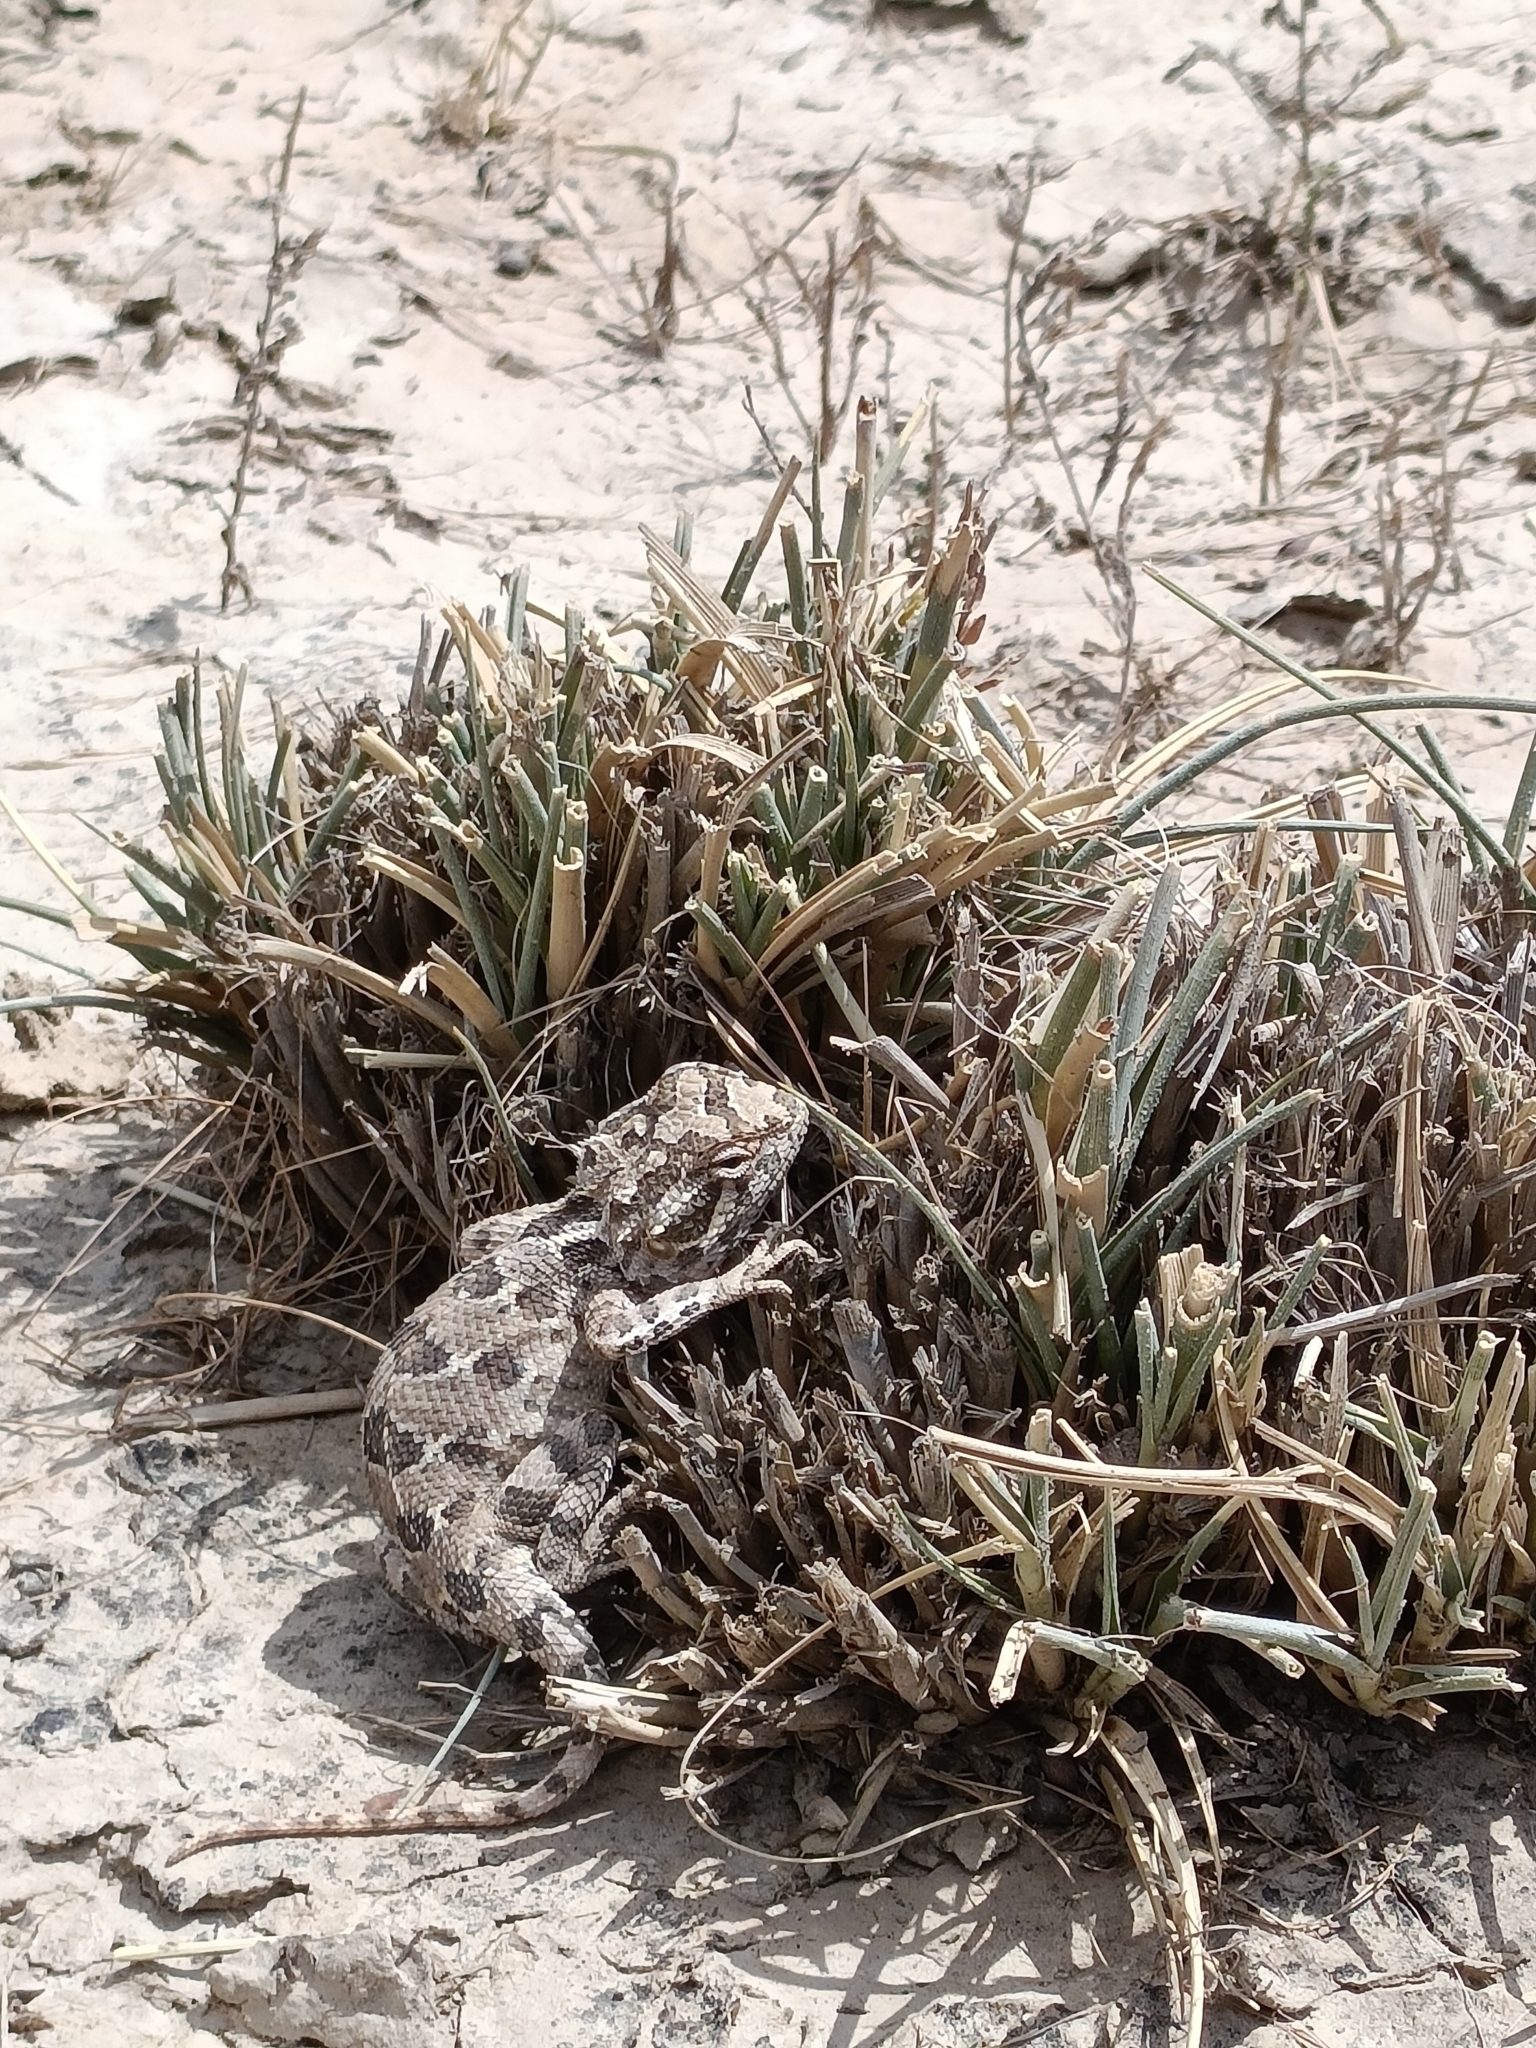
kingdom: Animalia
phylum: Chordata
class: Squamata
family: Agamidae
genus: Calotes
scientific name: Calotes minor
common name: Dwarf rock agama
